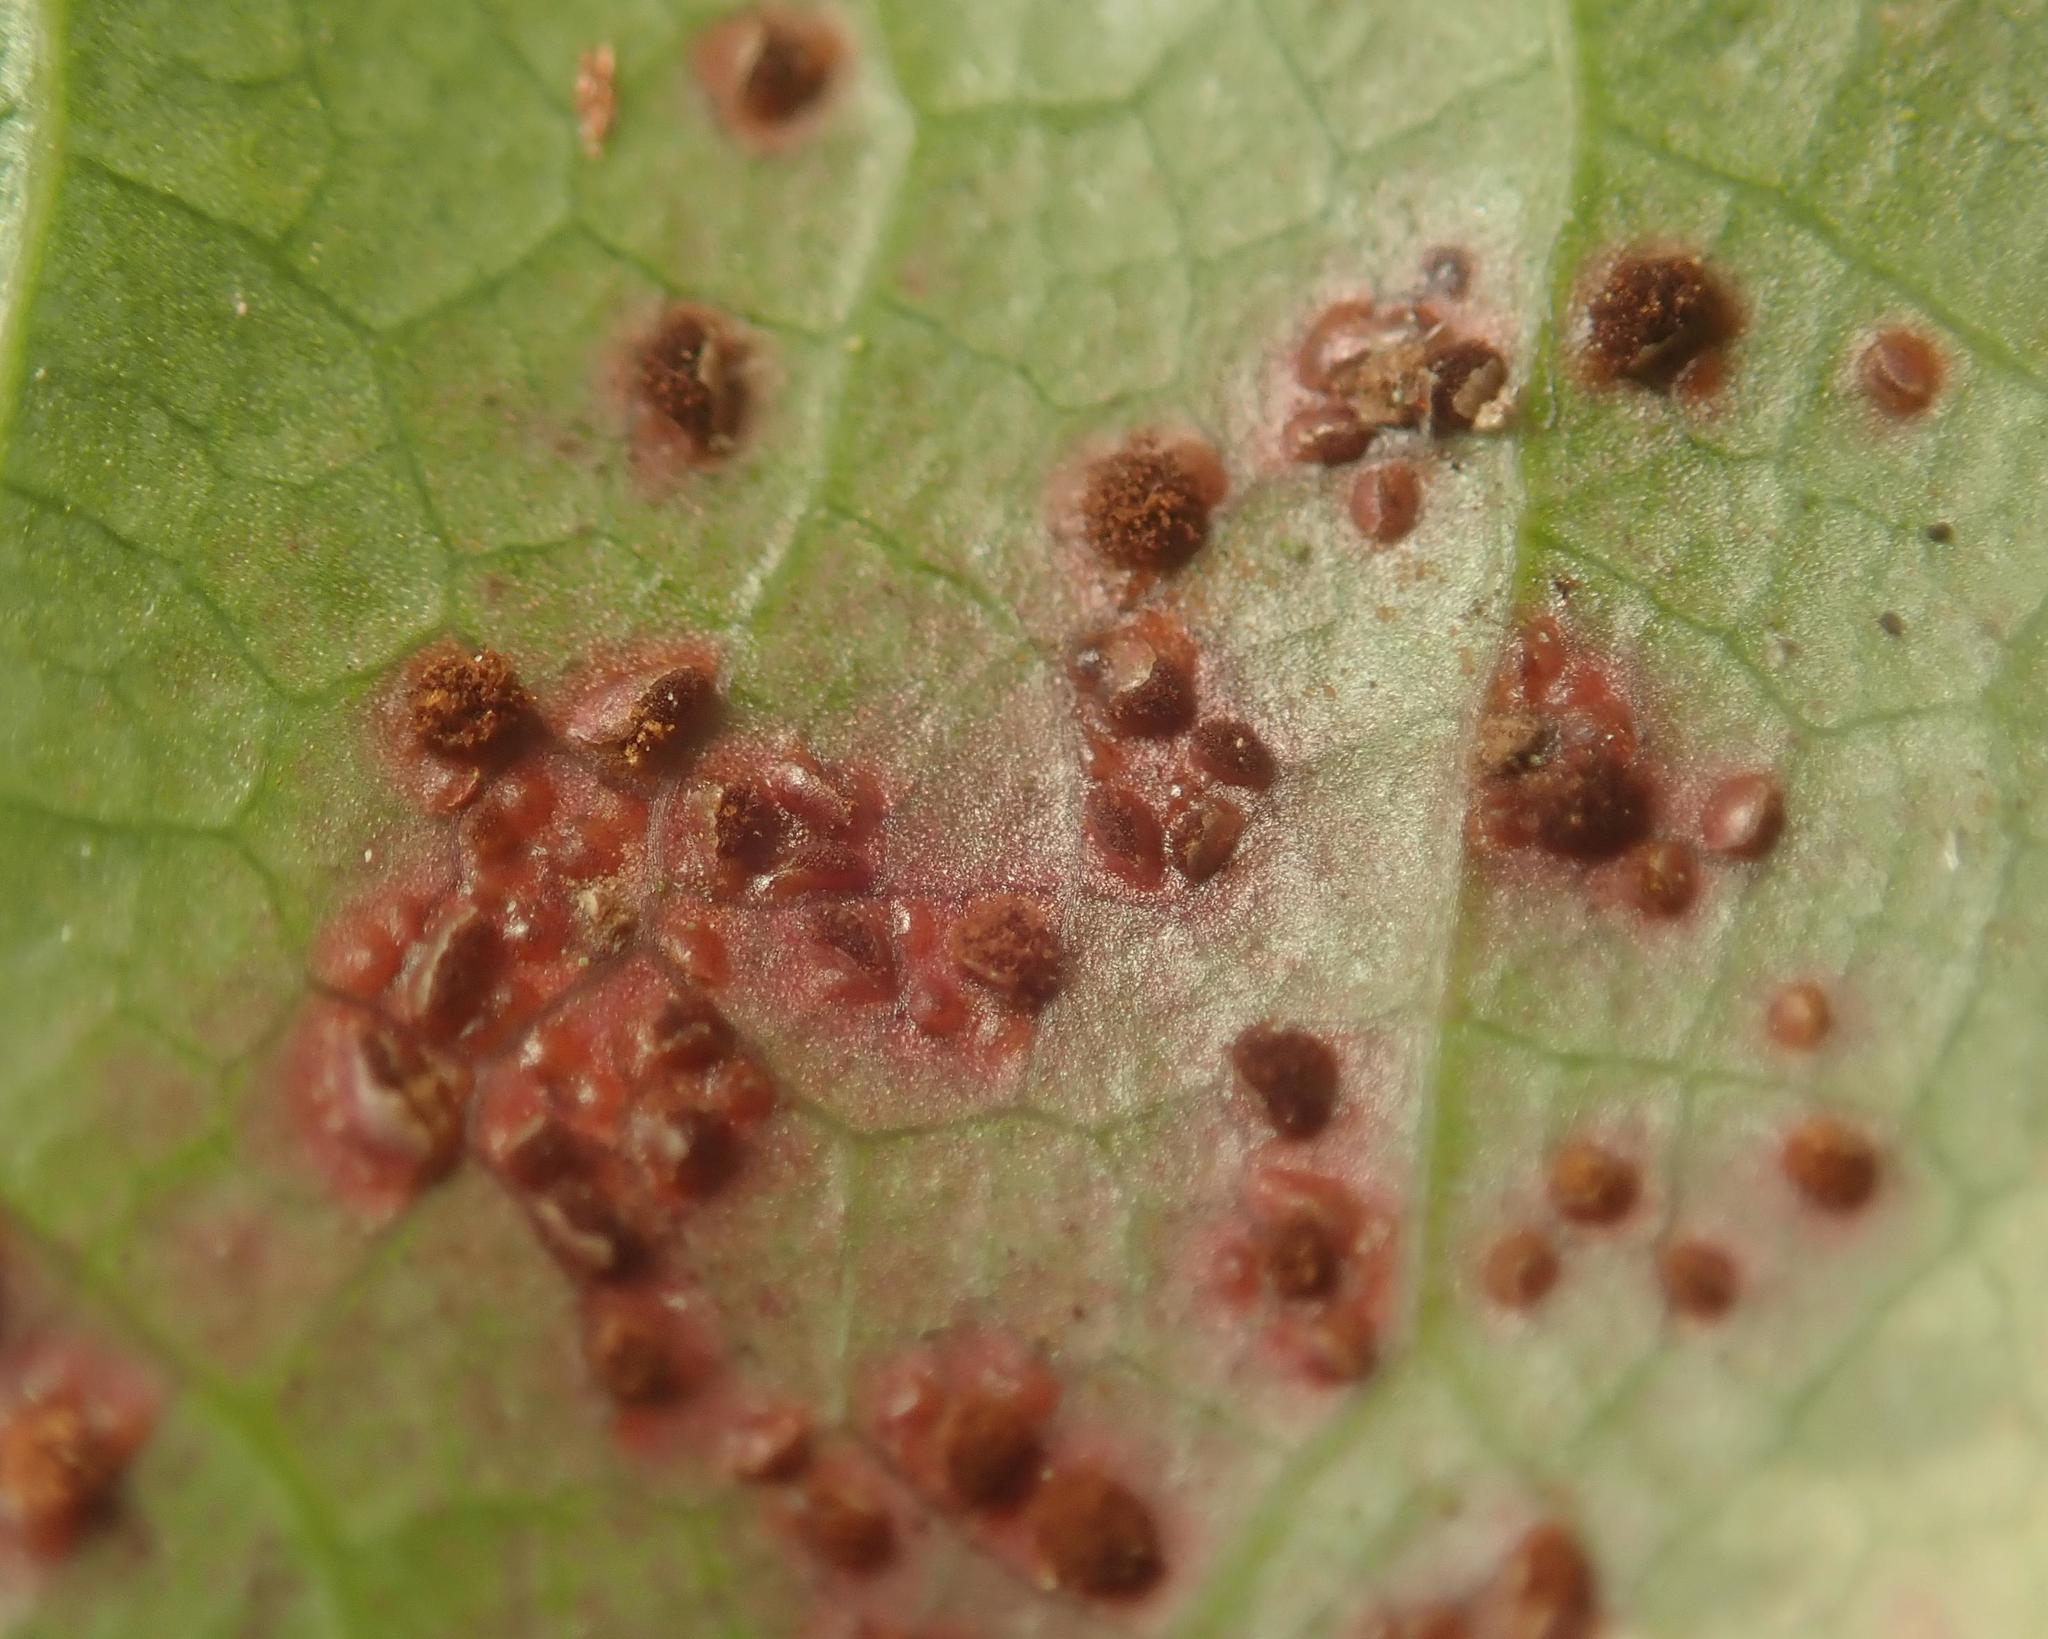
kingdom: Fungi
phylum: Basidiomycota
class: Pucciniomycetes
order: Pucciniales
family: Pucciniaceae
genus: Cumminsiella
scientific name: Cumminsiella mirabilissima
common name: Mahonia rust
